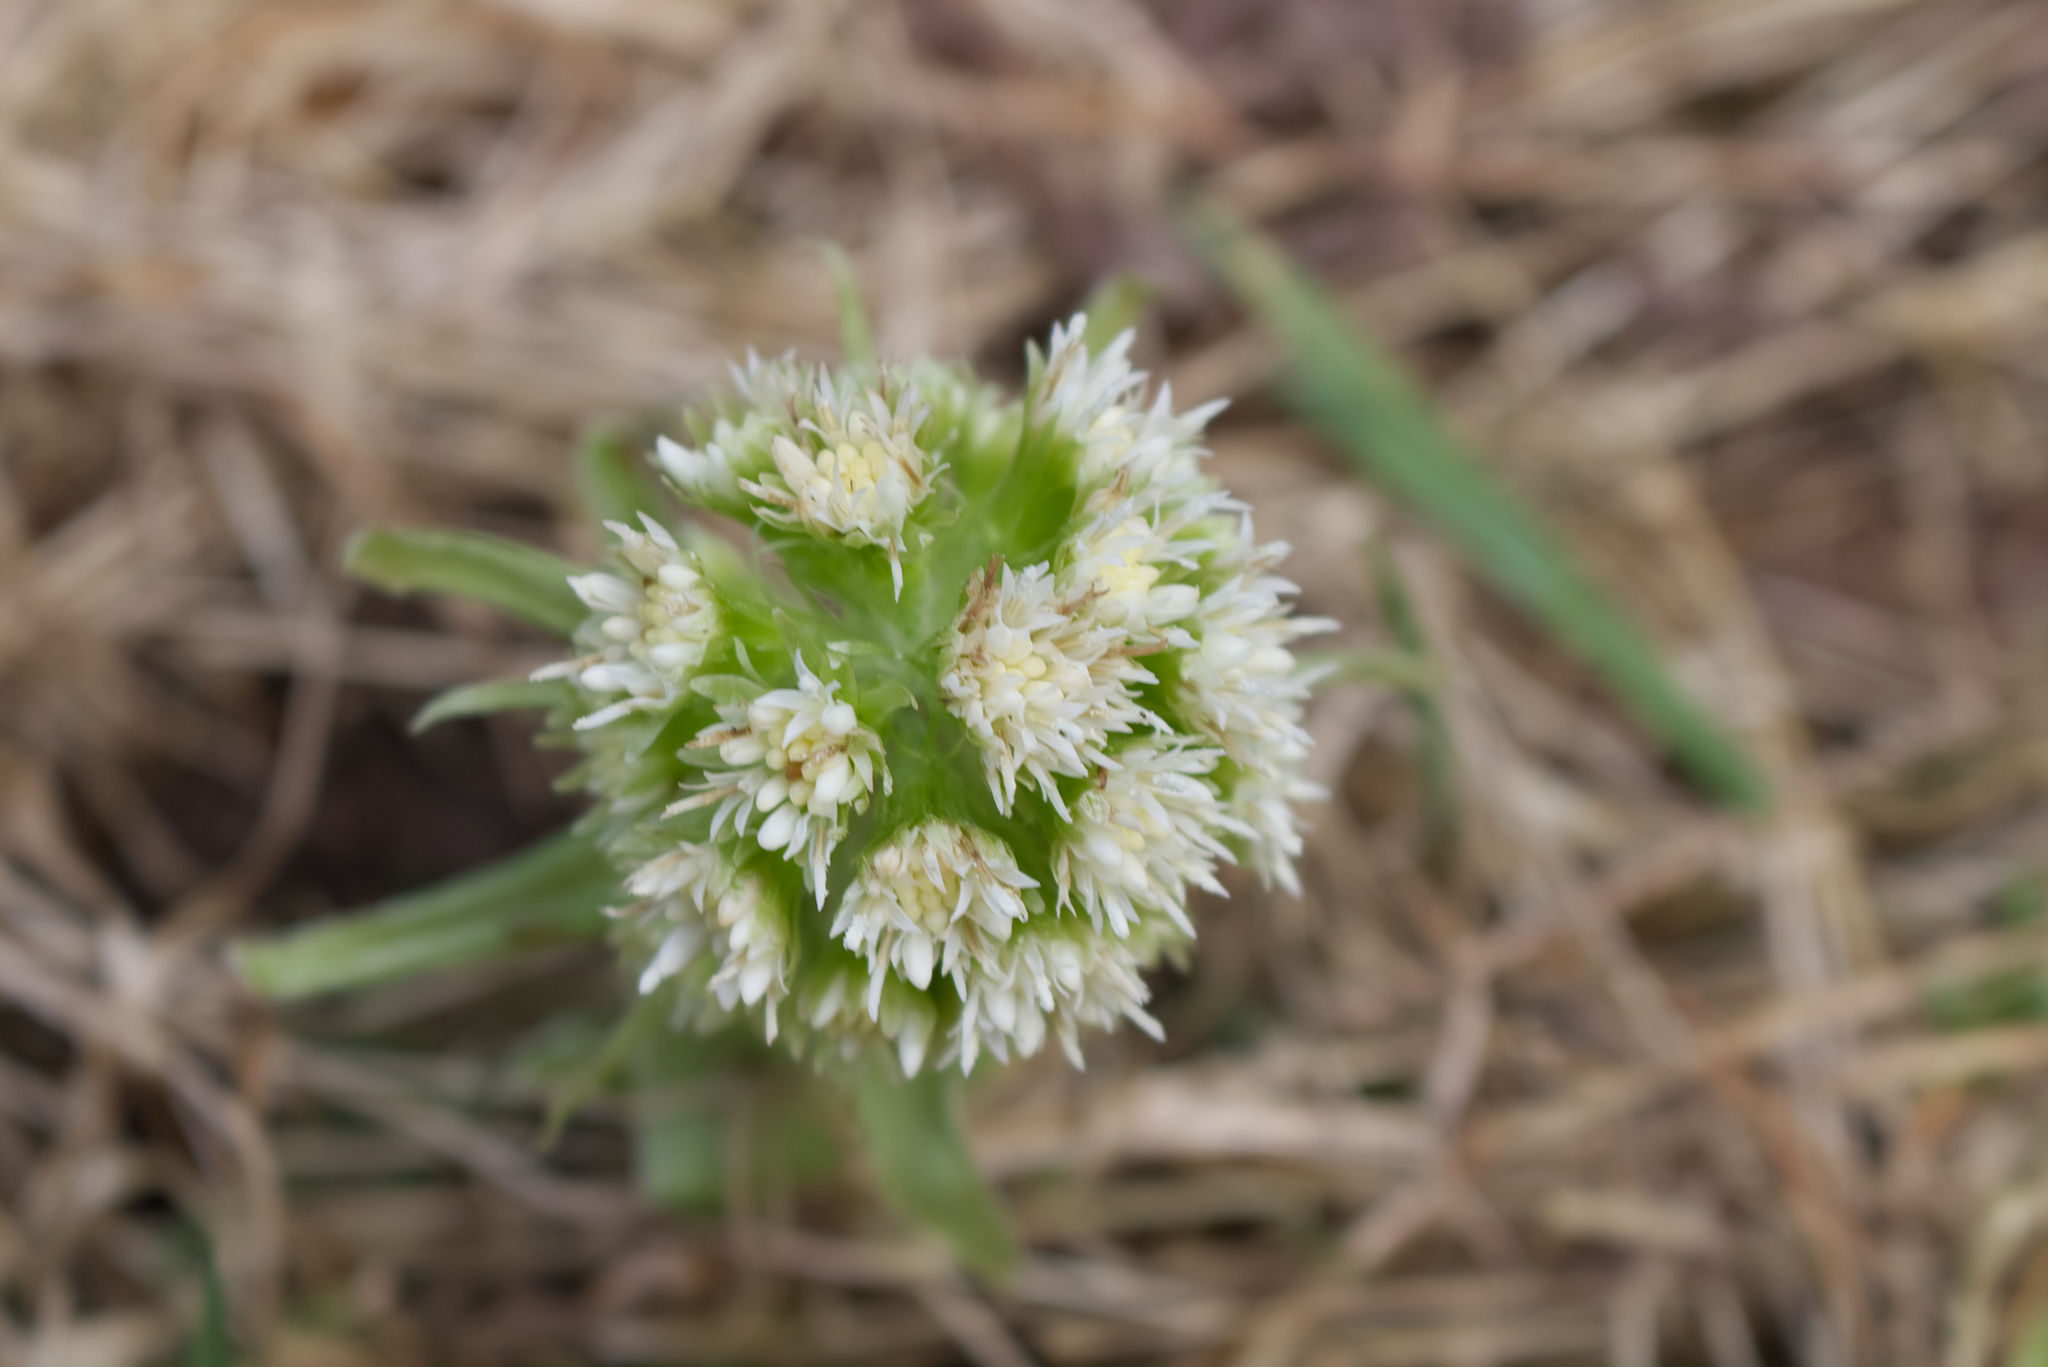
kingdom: Plantae
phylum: Tracheophyta
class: Magnoliopsida
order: Asterales
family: Asteraceae
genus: Petasites
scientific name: Petasites albus
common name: White butterbur
